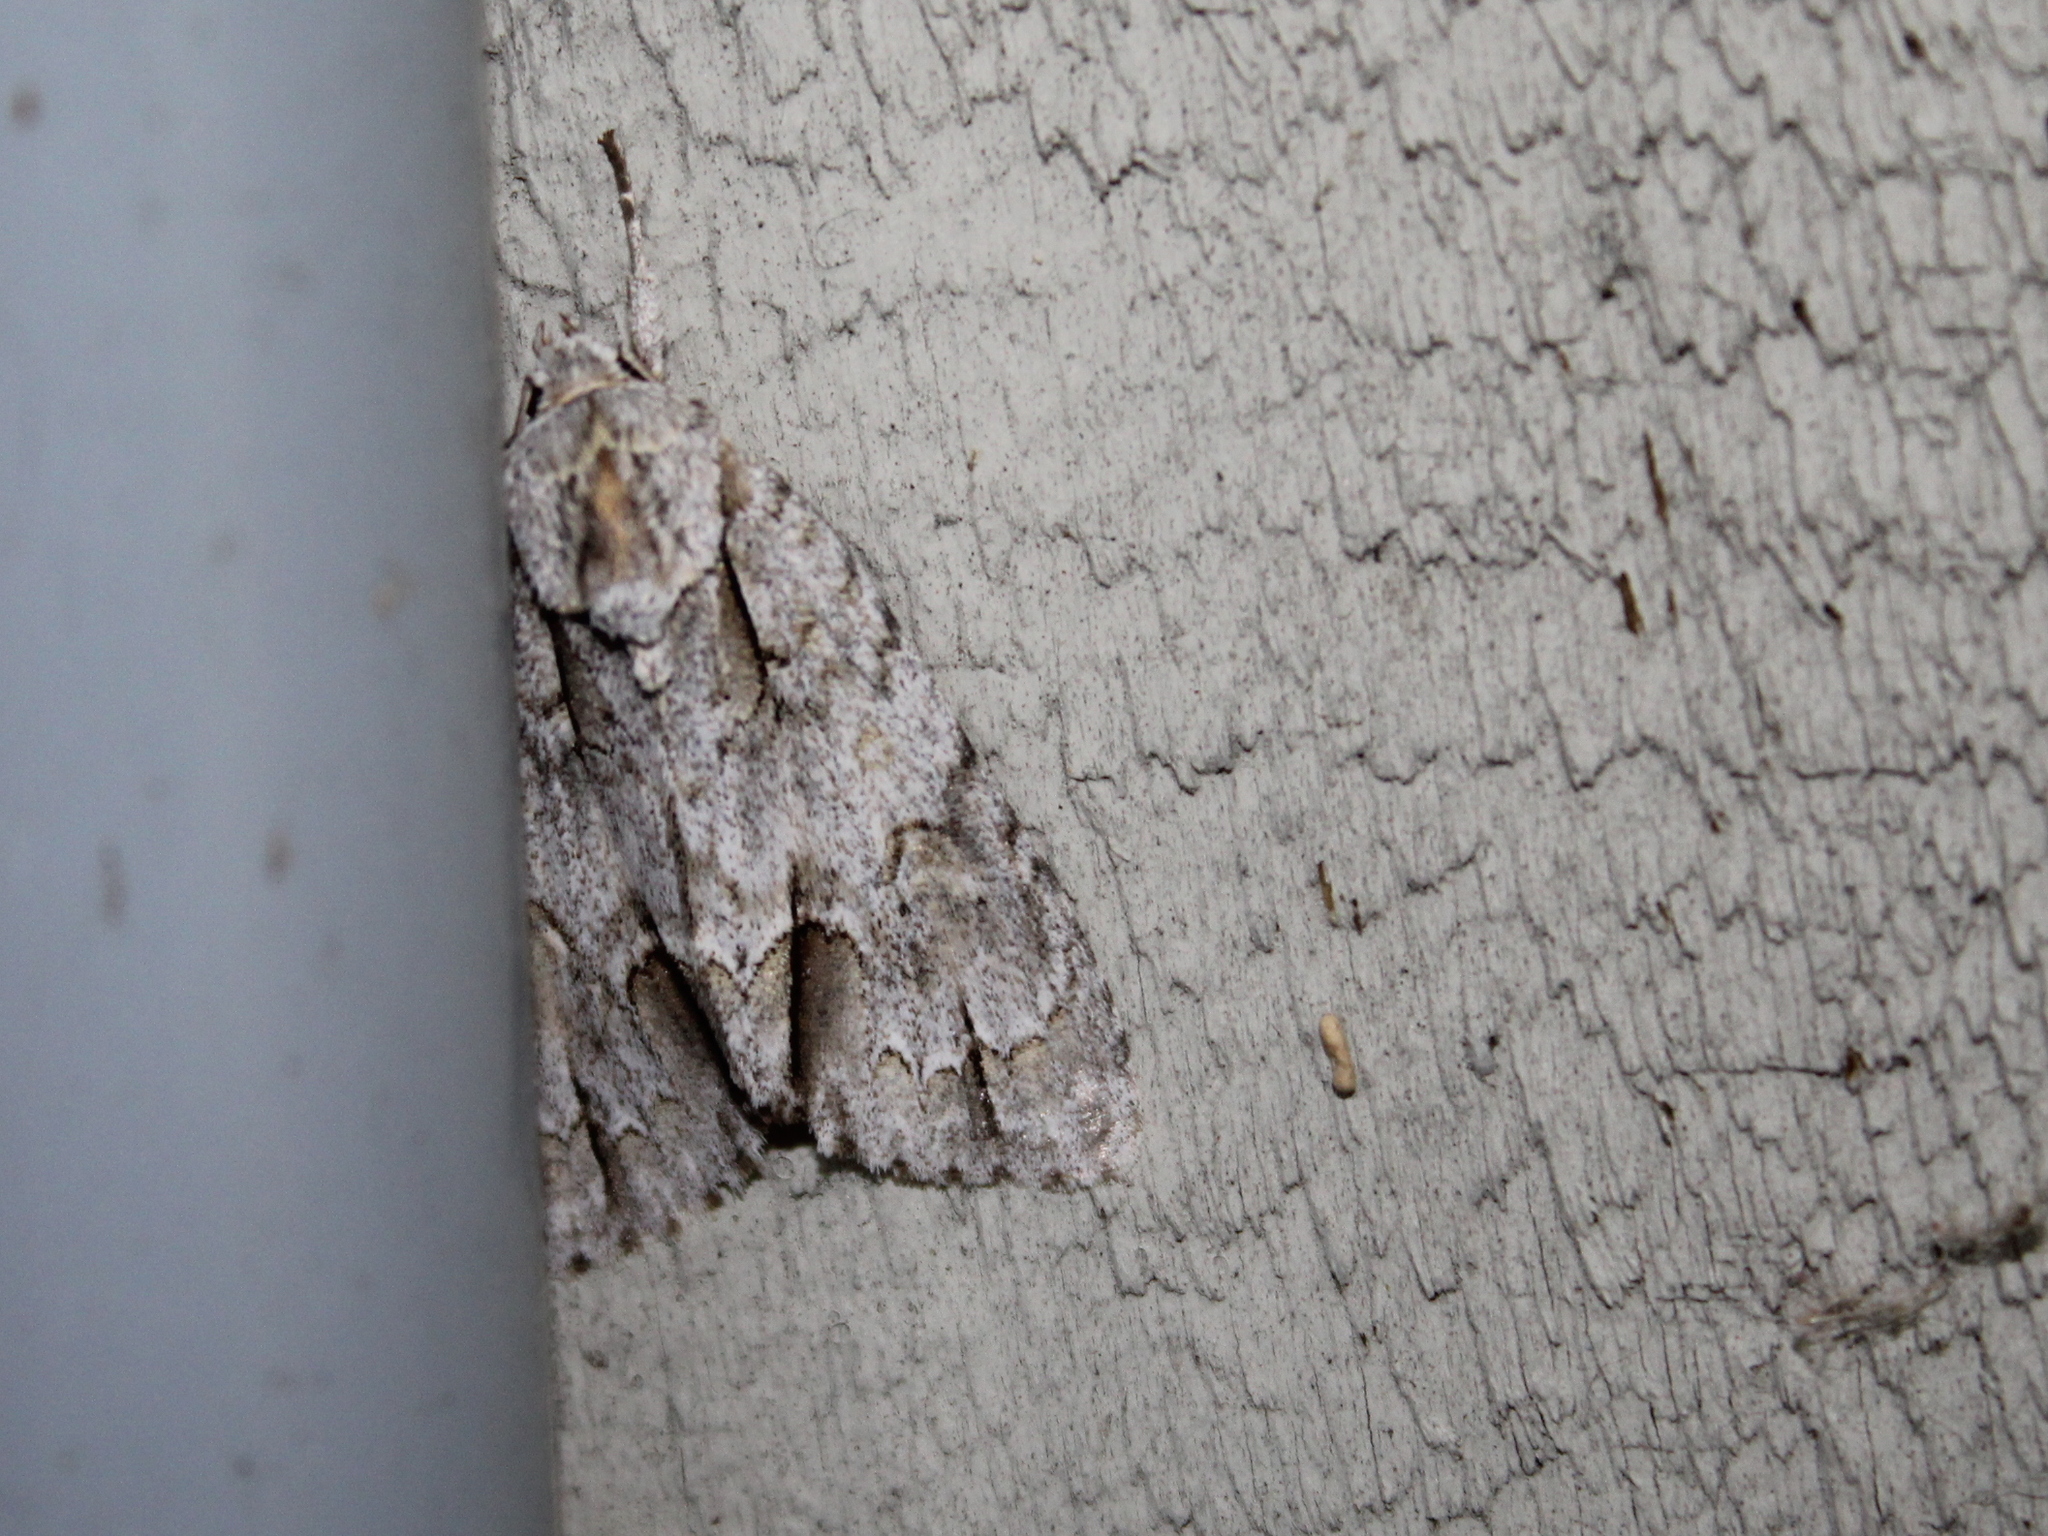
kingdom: Animalia
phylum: Arthropoda
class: Insecta
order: Lepidoptera
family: Noctuidae
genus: Acronicta
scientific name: Acronicta morula
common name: Ochre dagger
